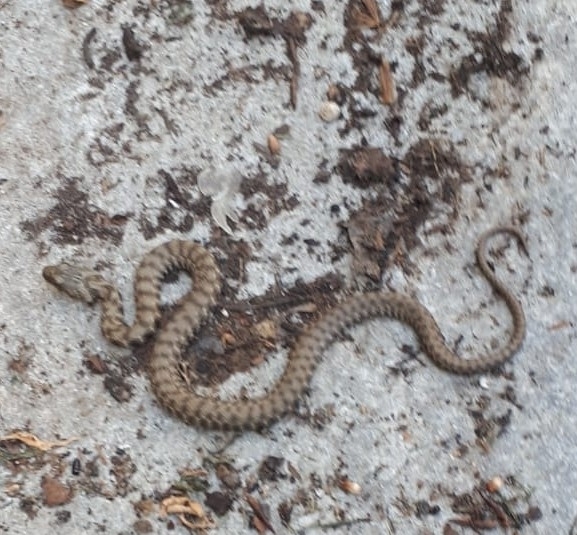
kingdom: Animalia
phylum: Chordata
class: Squamata
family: Colubridae
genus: Natrix
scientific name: Natrix tessellata
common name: Dice snake
